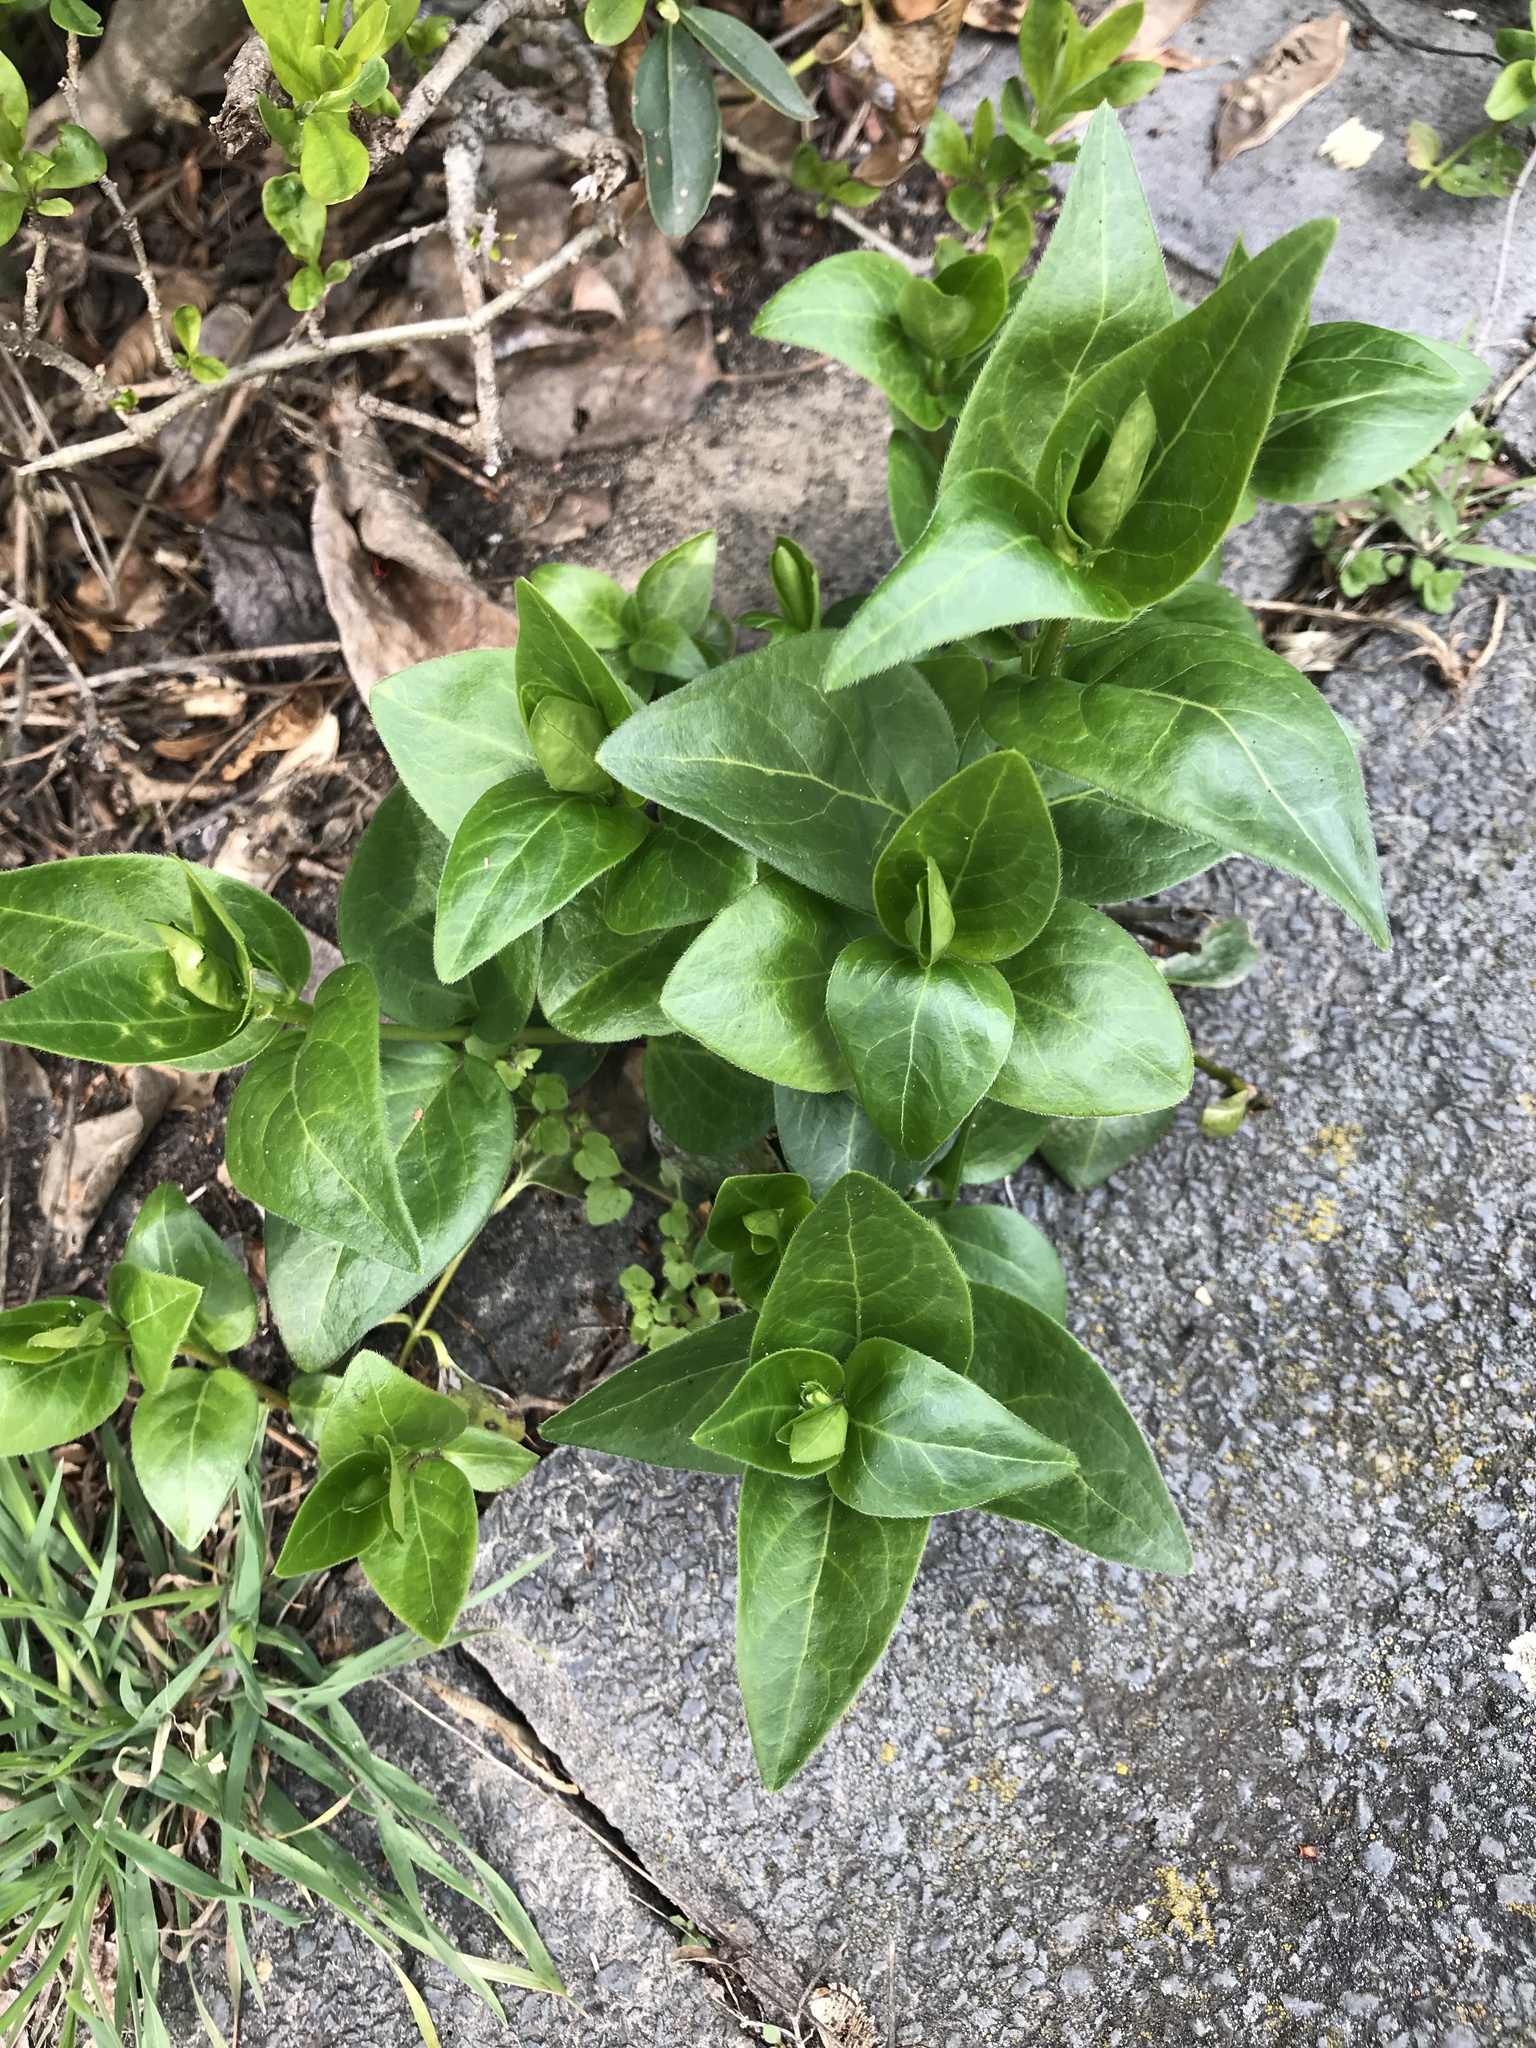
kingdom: Plantae
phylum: Tracheophyta
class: Magnoliopsida
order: Gentianales
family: Apocynaceae
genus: Vinca
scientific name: Vinca major
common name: Greater periwinkle
